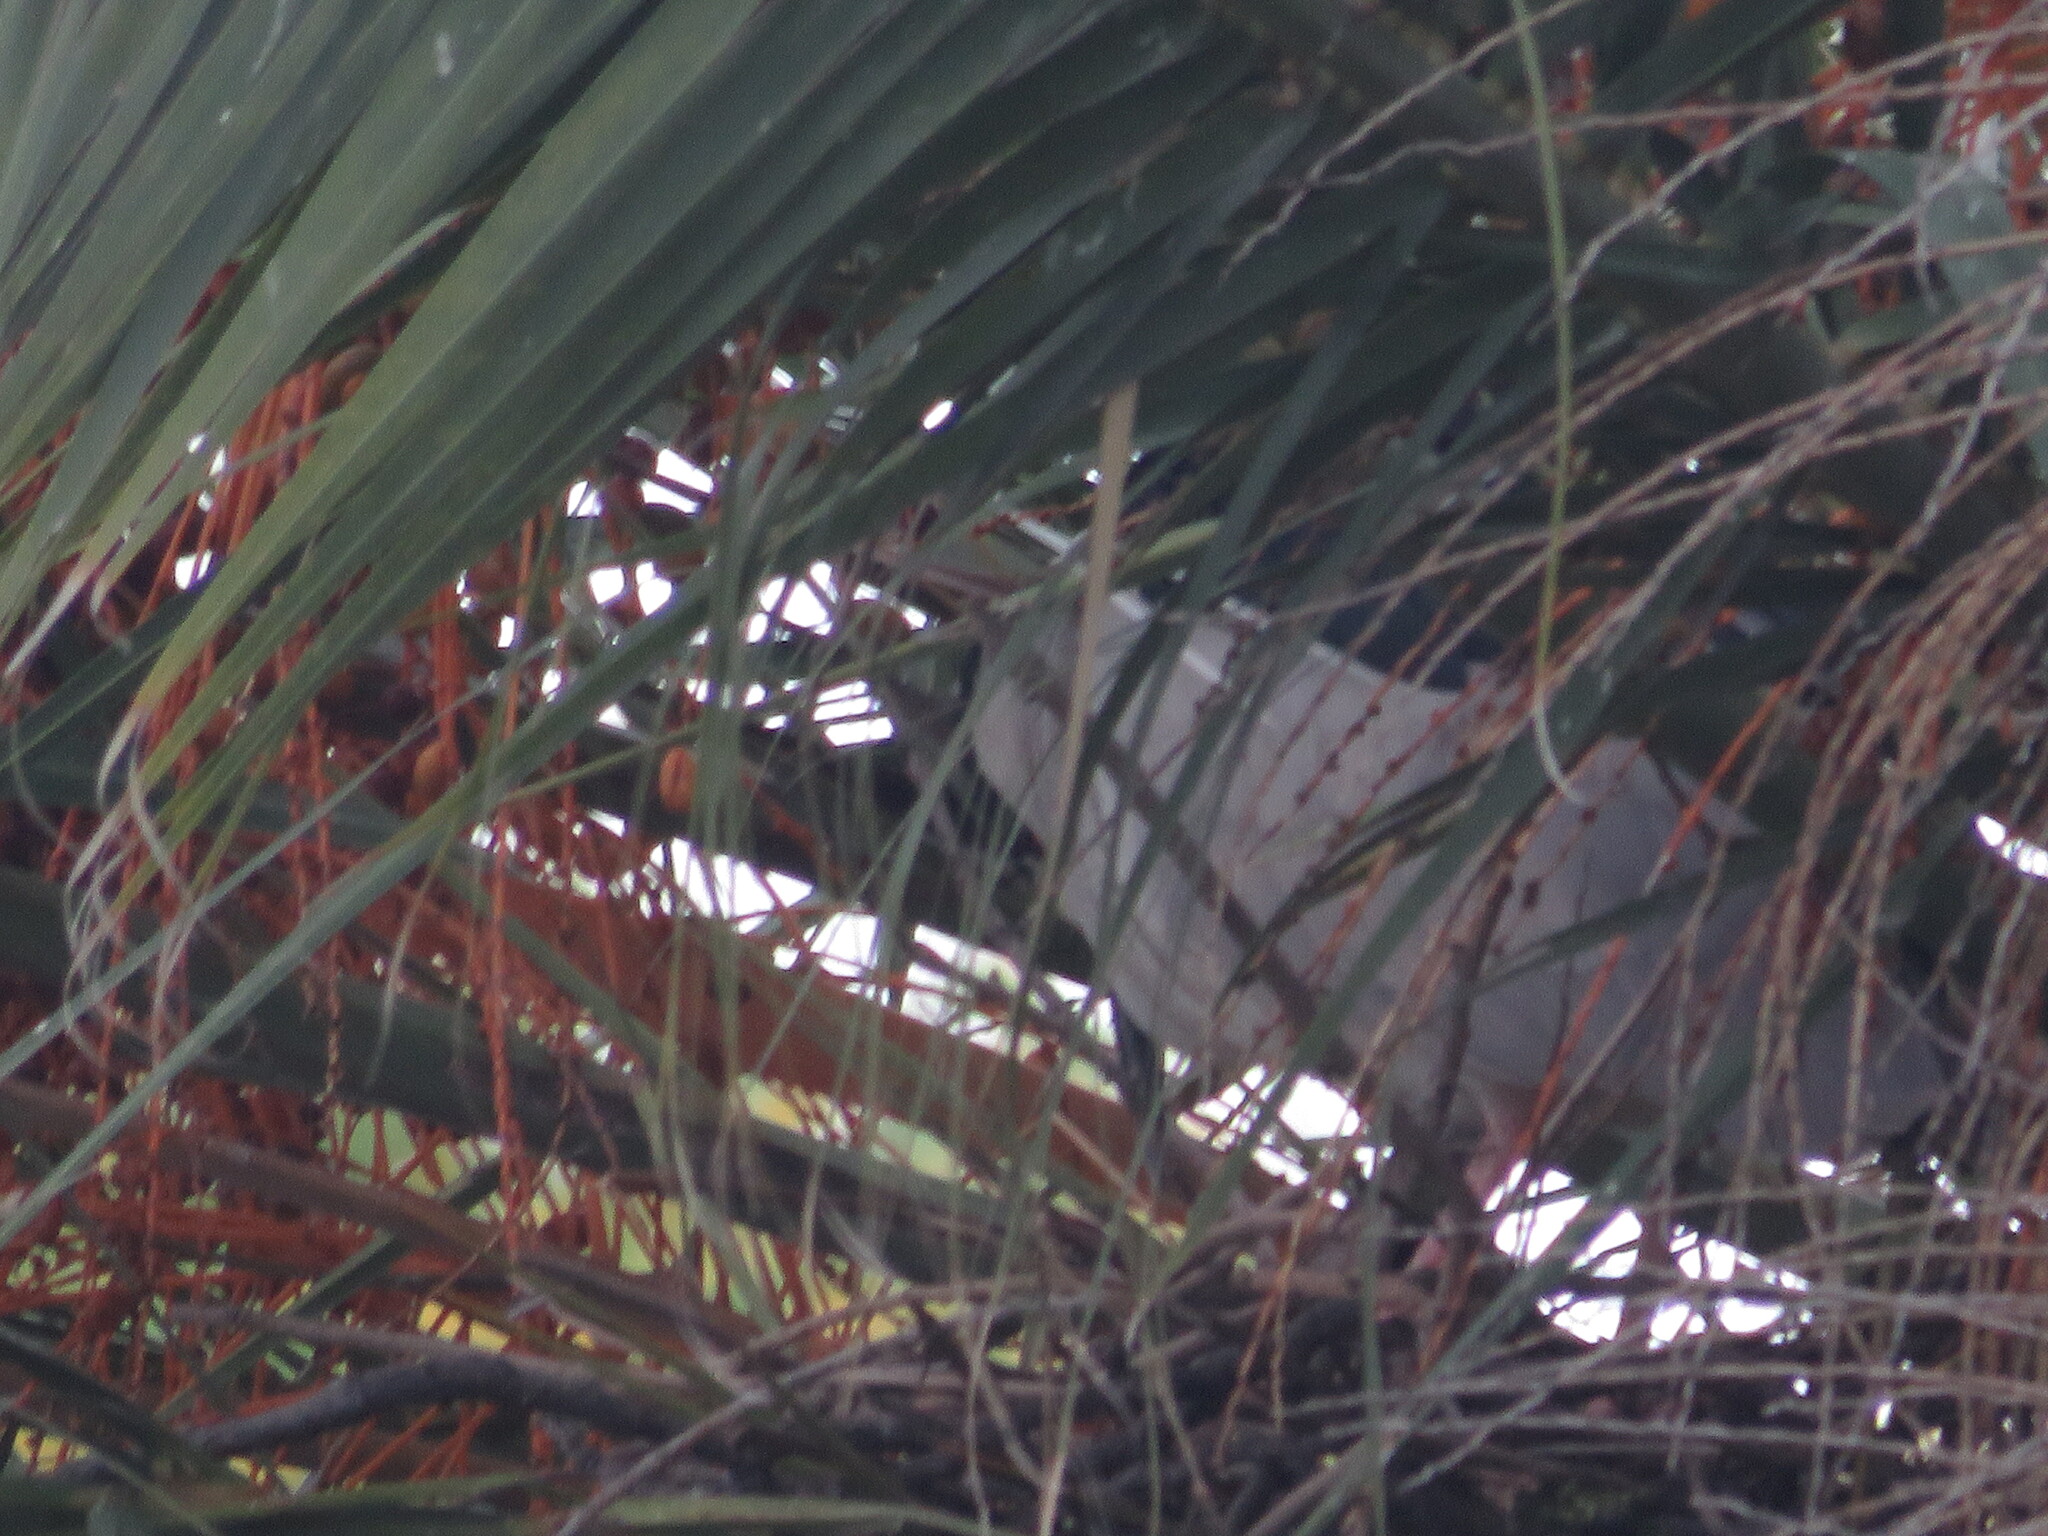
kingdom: Animalia
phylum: Chordata
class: Aves
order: Pelecaniformes
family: Ardeidae
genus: Nycticorax
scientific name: Nycticorax nycticorax
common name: Black-crowned night heron
